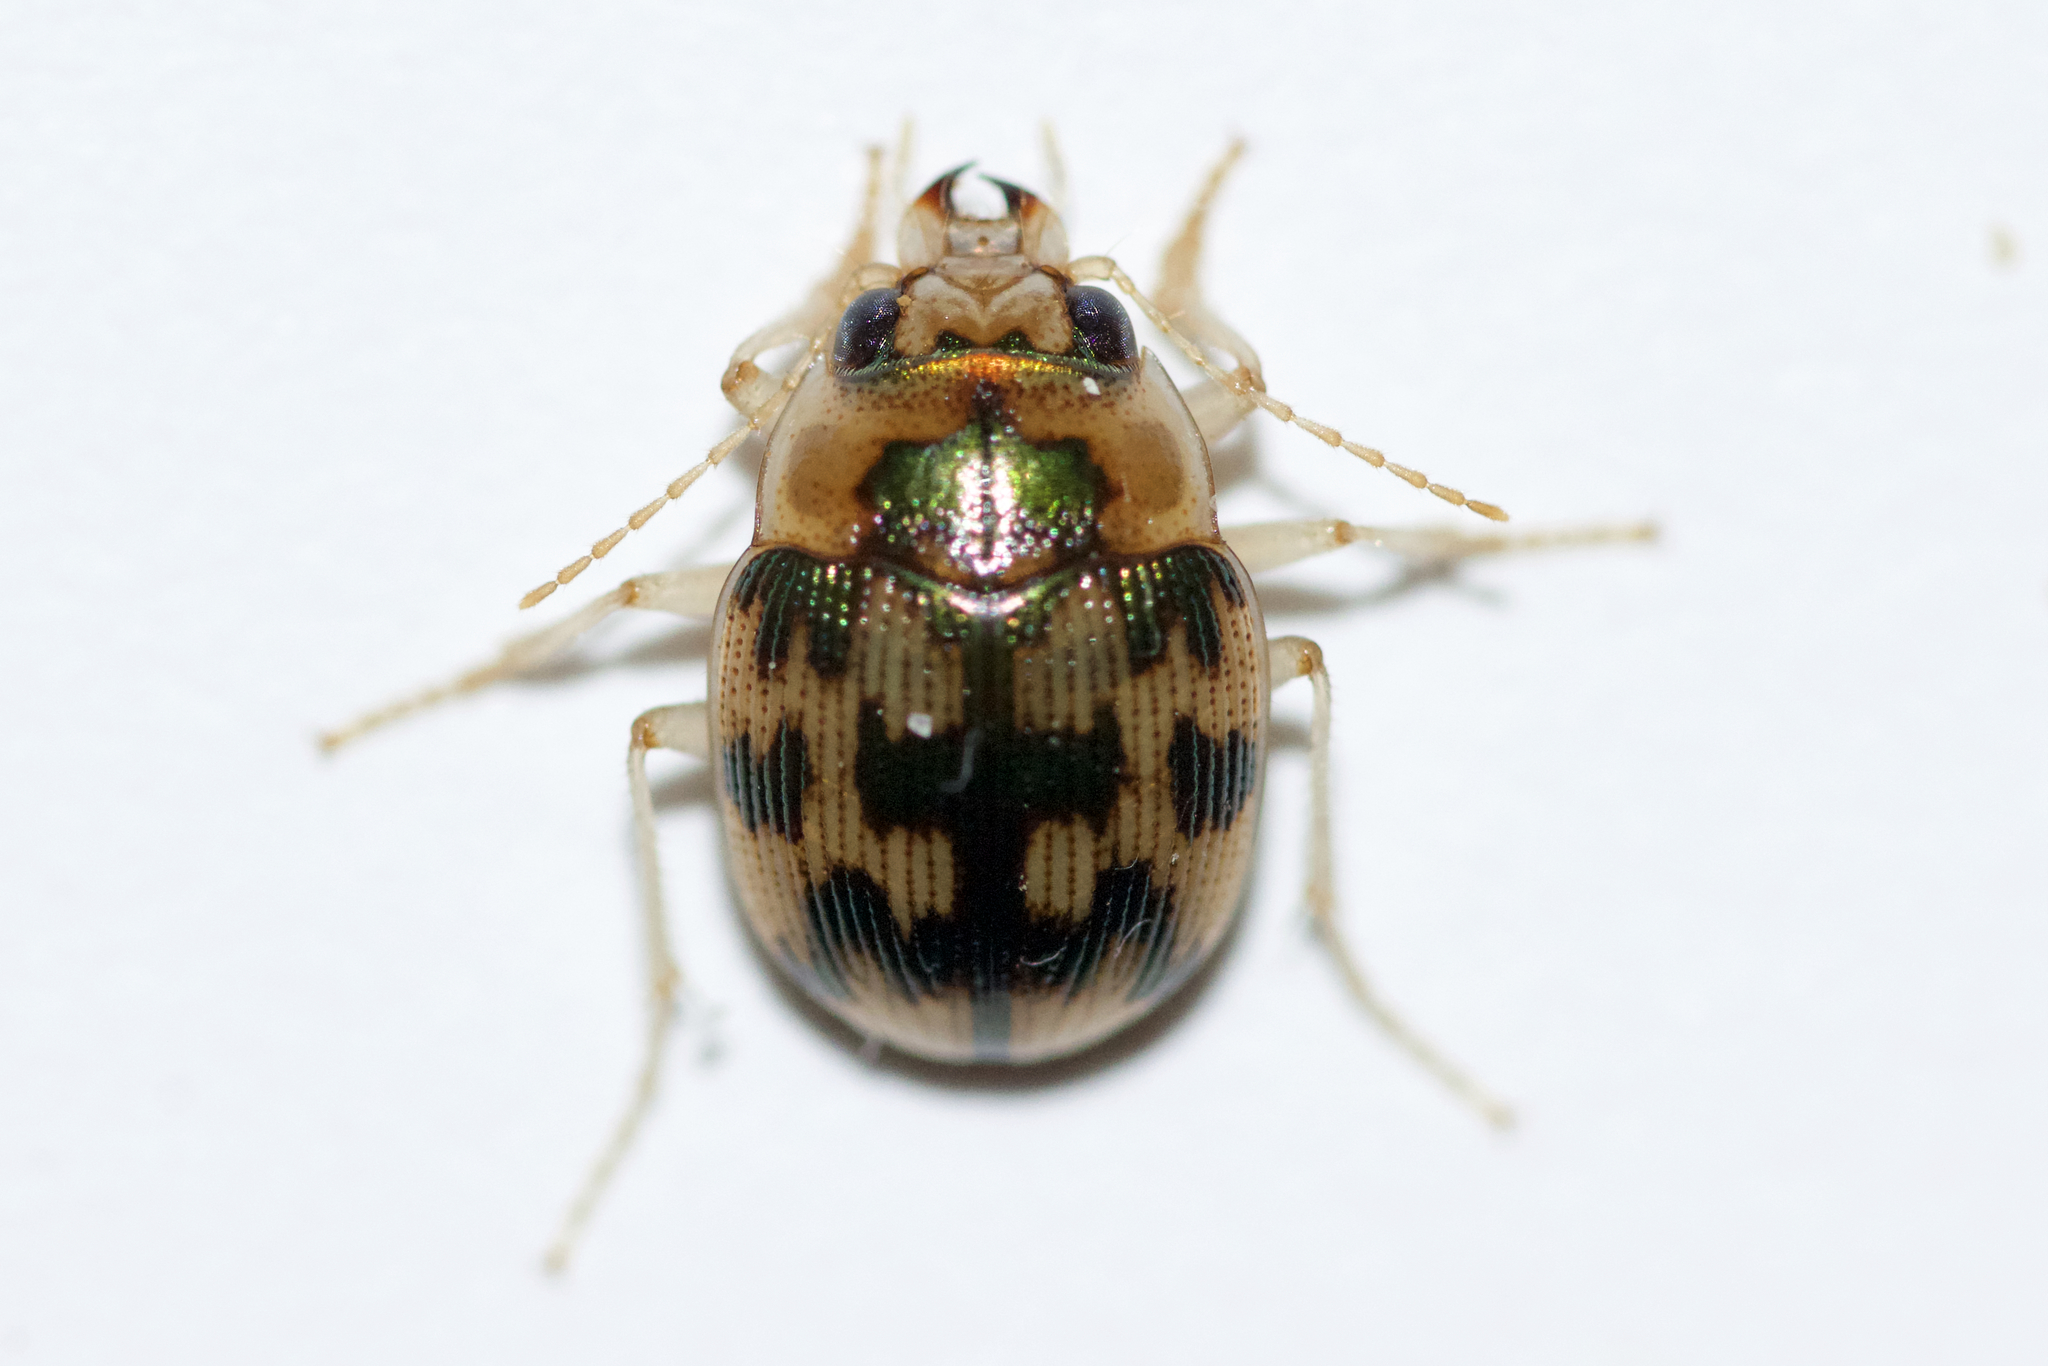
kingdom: Animalia
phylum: Arthropoda
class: Insecta
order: Coleoptera
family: Carabidae
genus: Omophron
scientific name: Omophron tessellatum
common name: Mosaic round sand beetle
